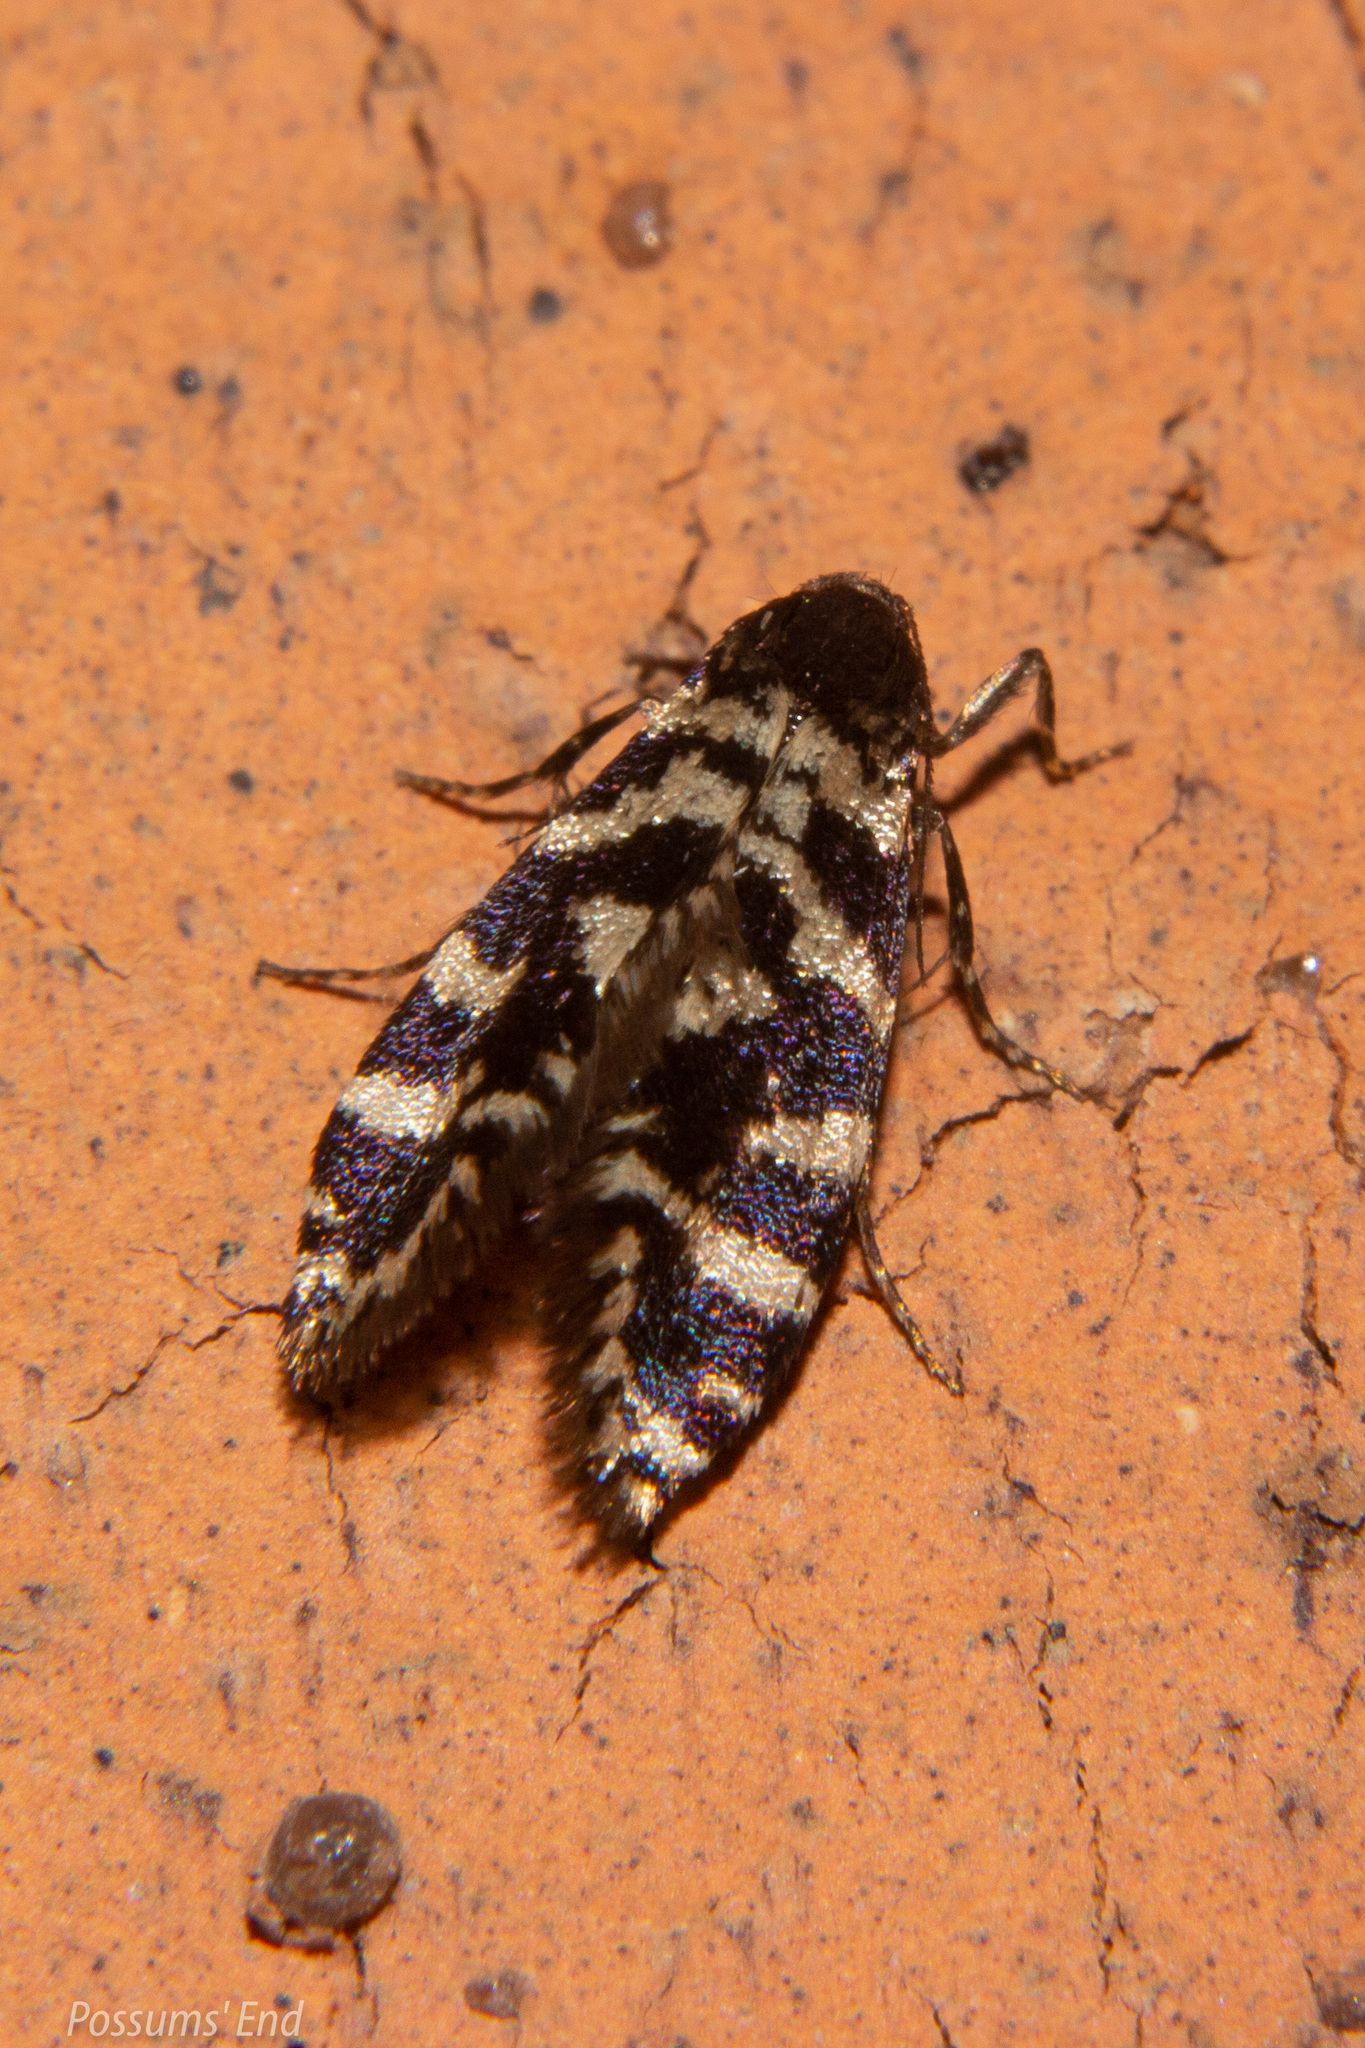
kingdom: Animalia
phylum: Arthropoda
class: Insecta
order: Lepidoptera
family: Psychidae
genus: Mallobathra
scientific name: Mallobathra memotuina
